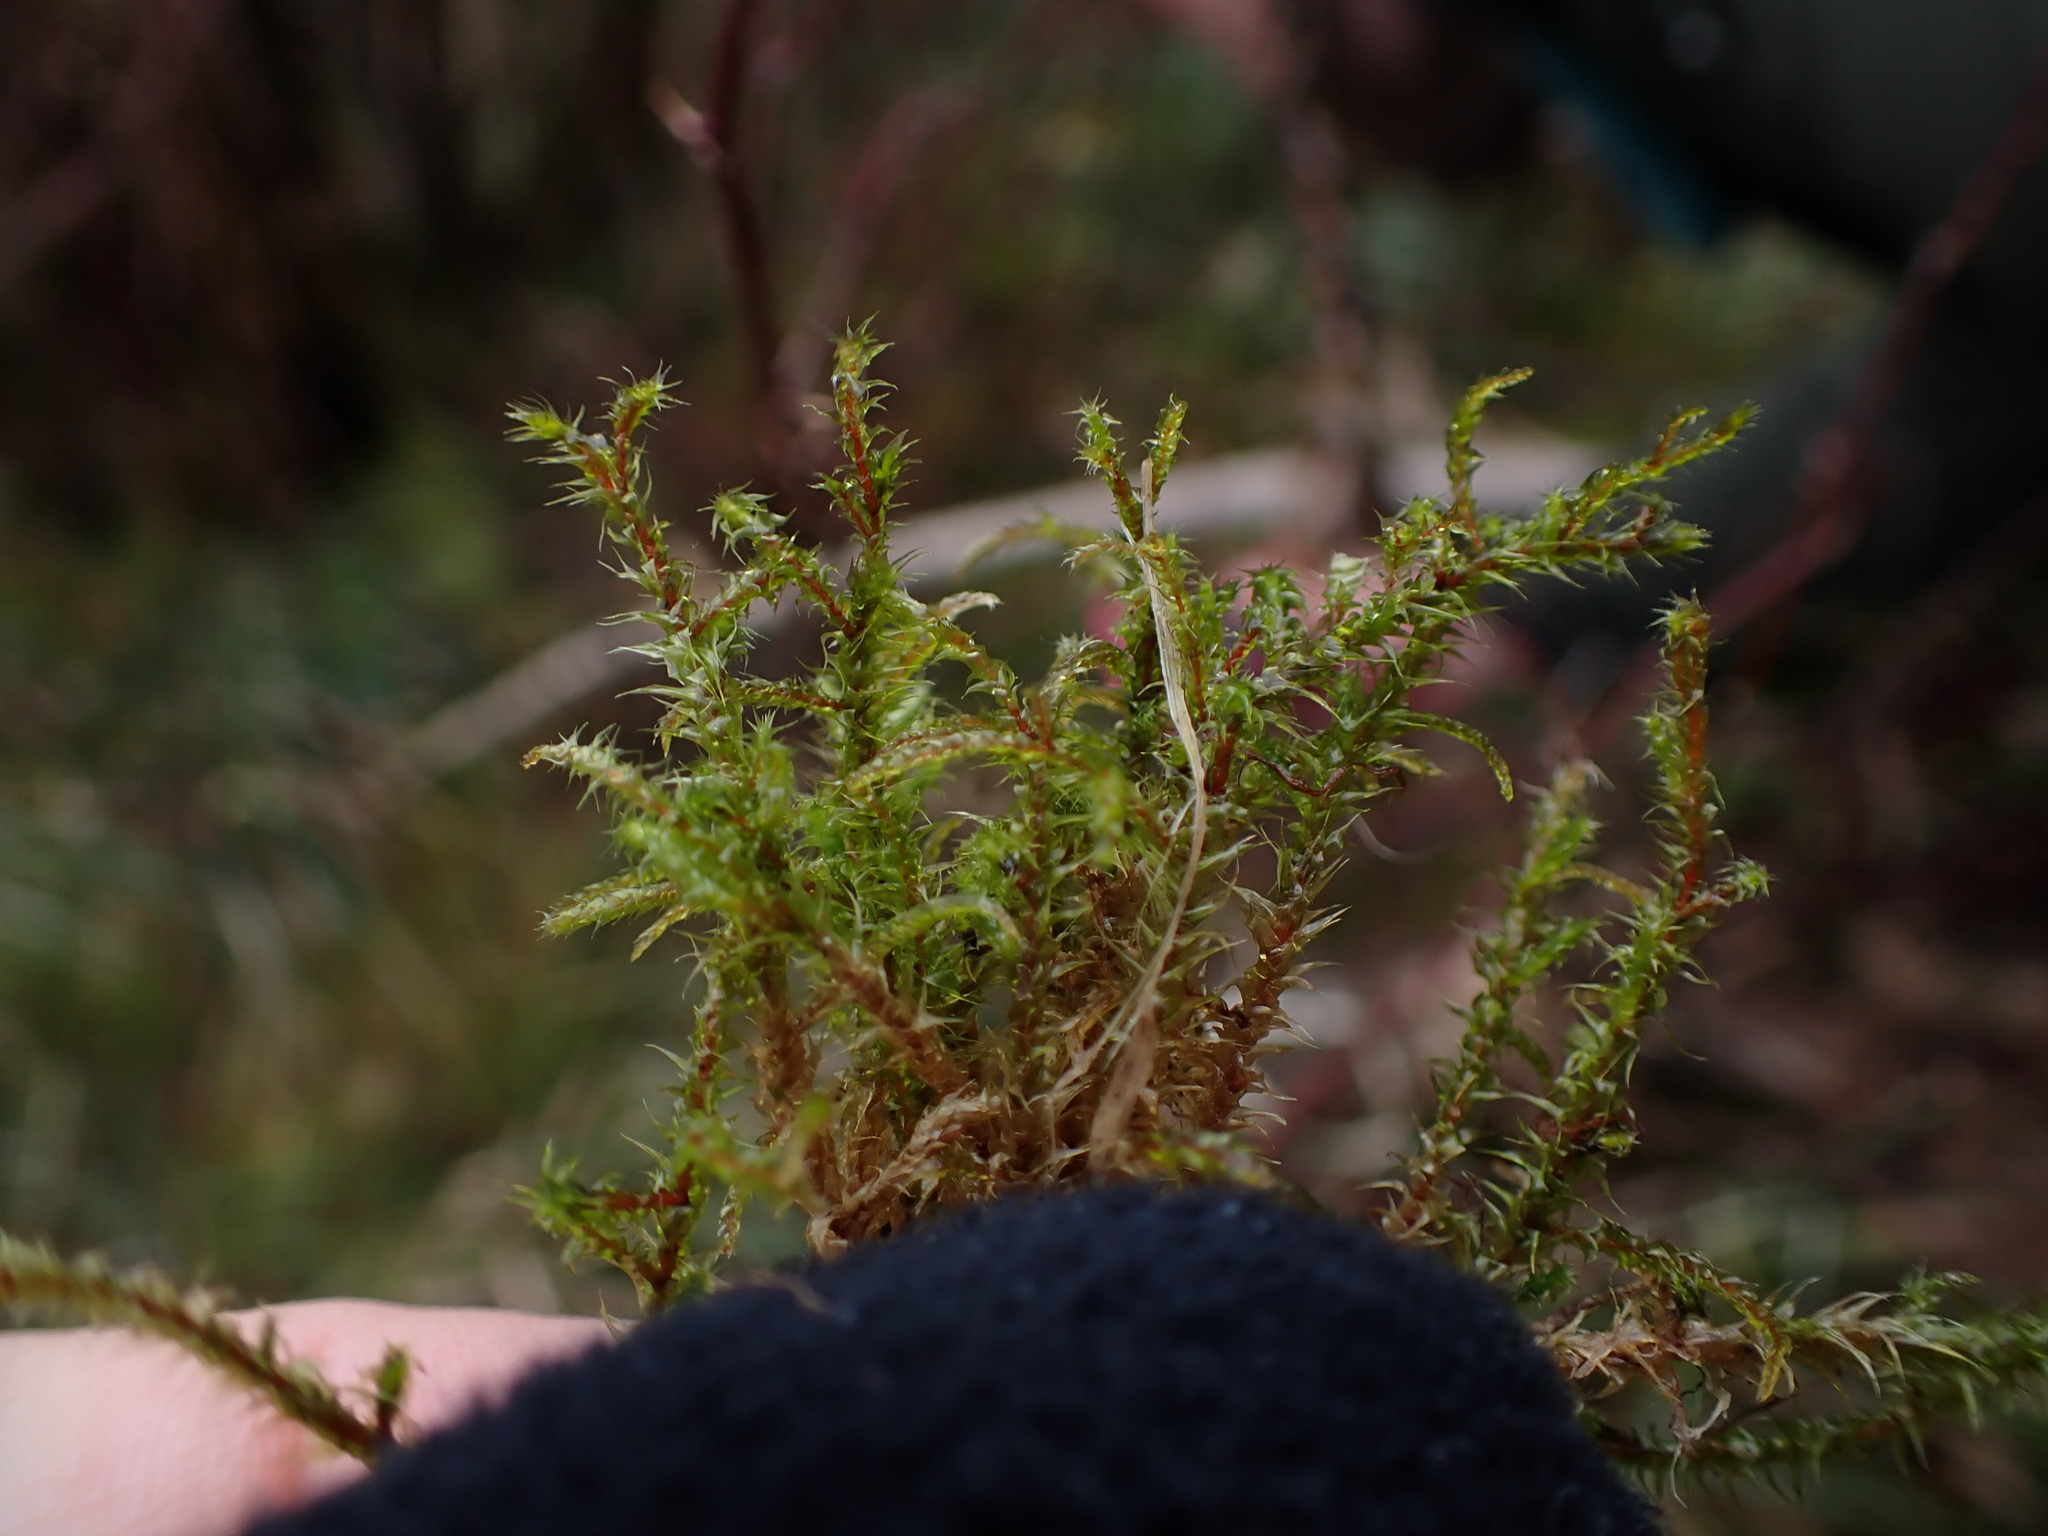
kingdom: Plantae
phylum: Bryophyta
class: Bryopsida
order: Hypnales
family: Hylocomiaceae
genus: Rhytidiadelphus
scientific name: Rhytidiadelphus subpinnatus
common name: Subpinnate gooseneck moss
